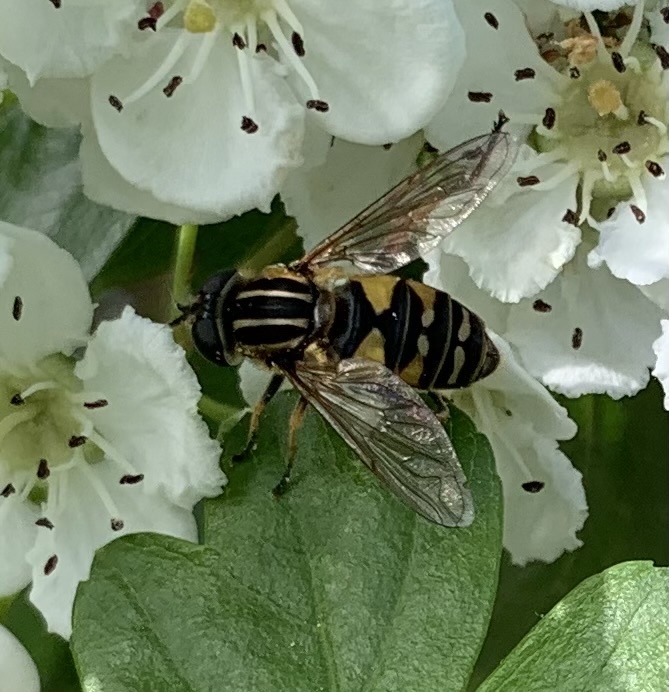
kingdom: Animalia
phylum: Arthropoda
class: Insecta
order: Diptera
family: Syrphidae
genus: Helophilus
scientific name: Helophilus pendulus
